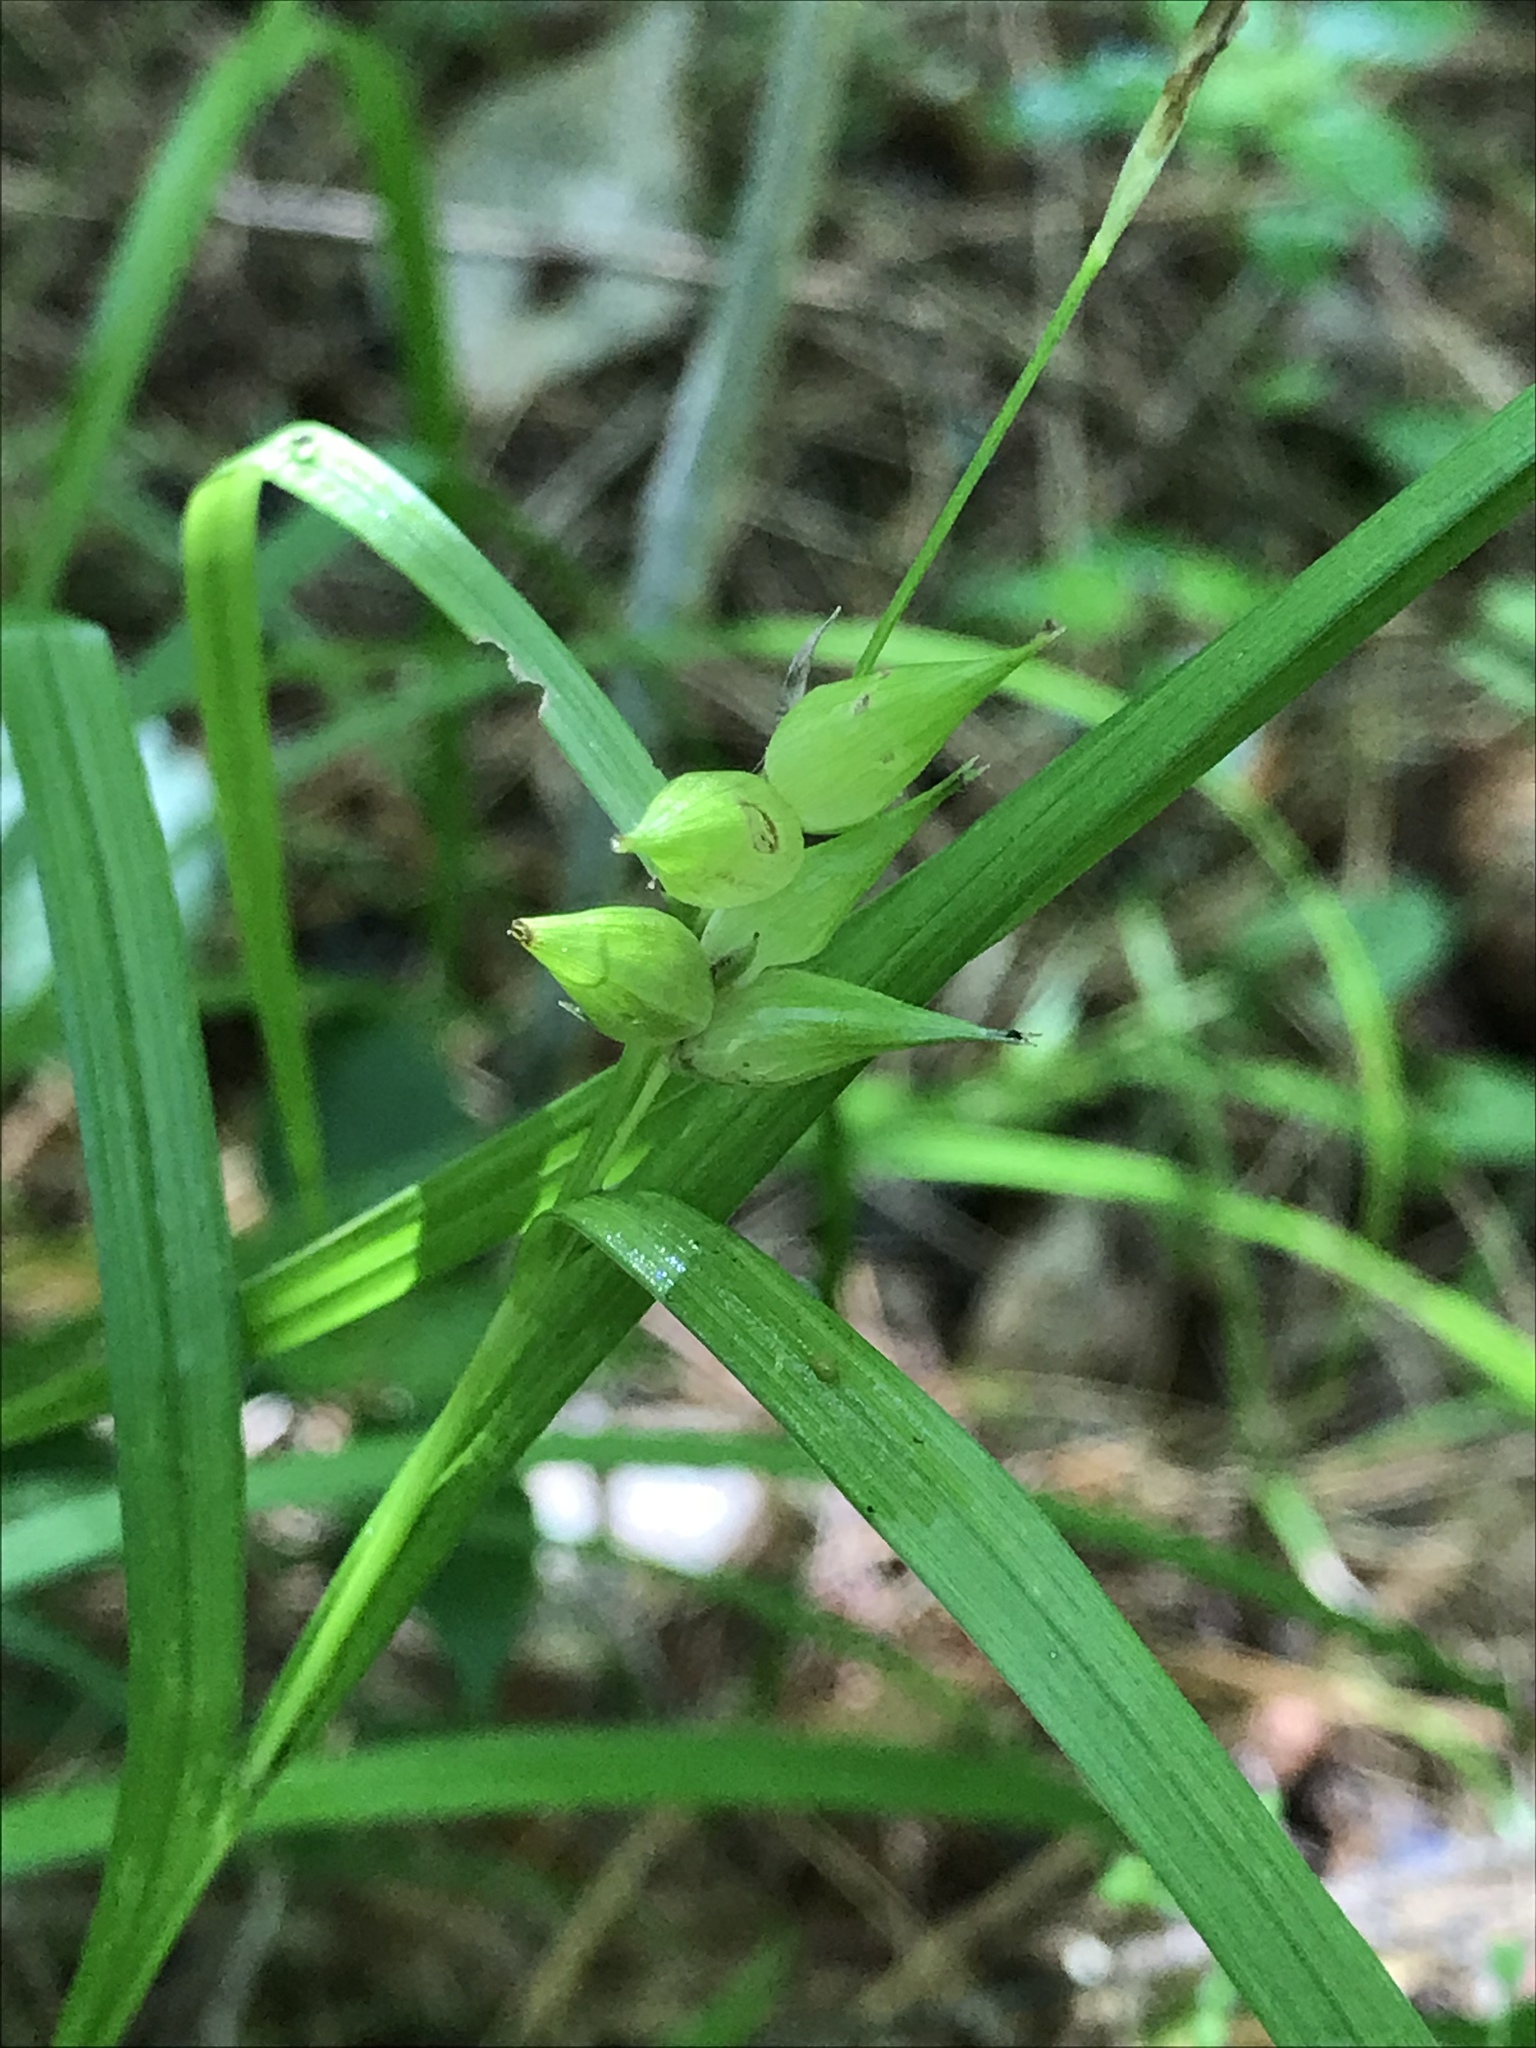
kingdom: Plantae
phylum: Tracheophyta
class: Liliopsida
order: Poales
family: Cyperaceae
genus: Carex
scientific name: Carex intumescens
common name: Greater bladder sedge
